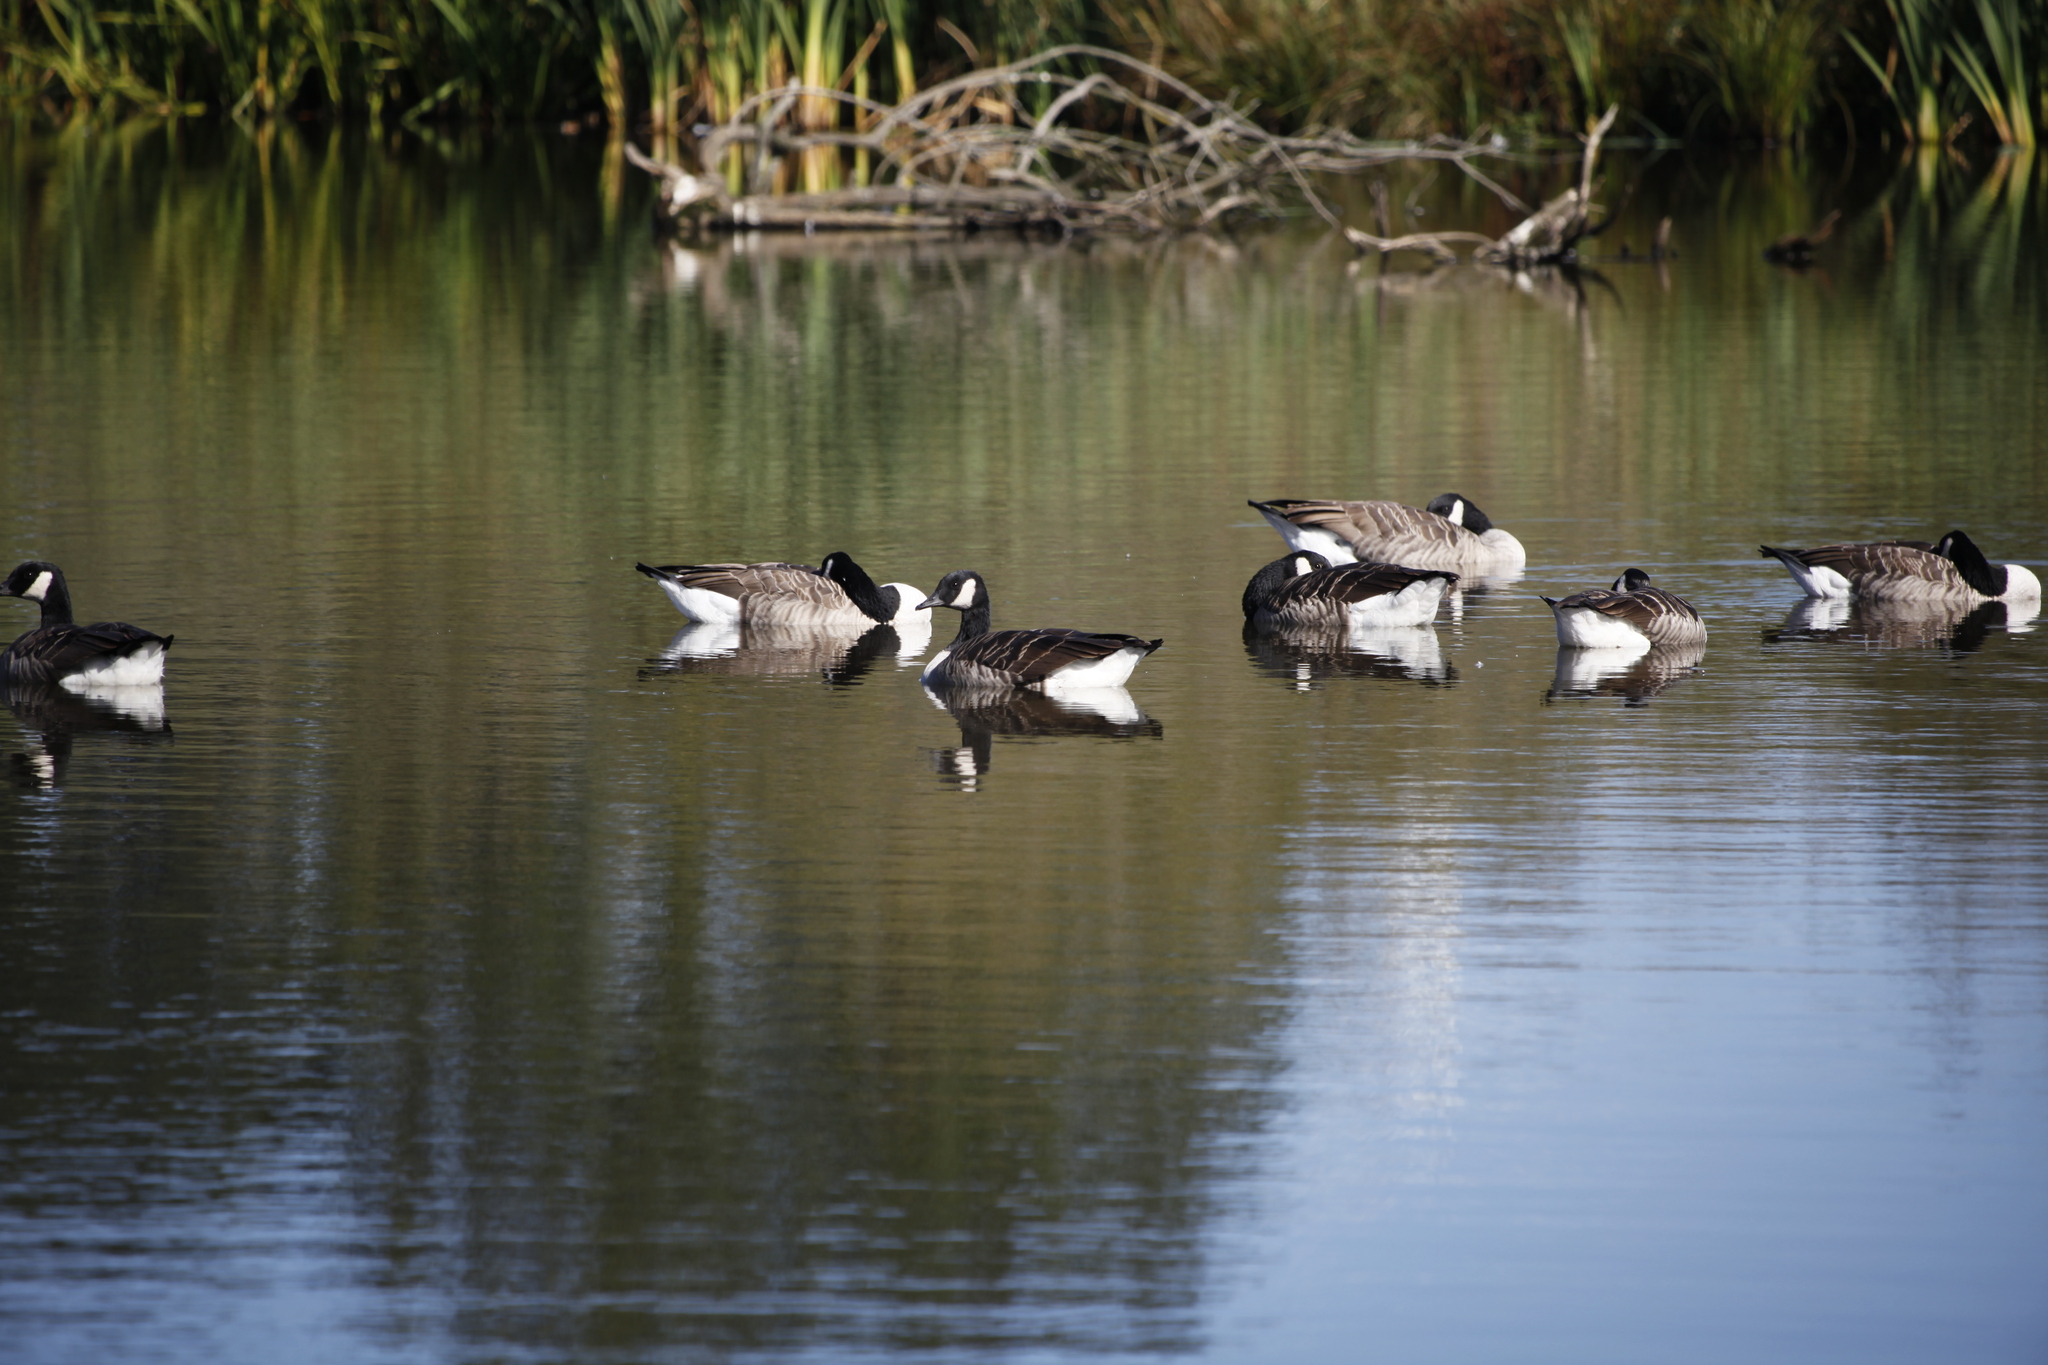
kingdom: Animalia
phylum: Chordata
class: Aves
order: Anseriformes
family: Anatidae
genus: Branta
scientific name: Branta canadensis
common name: Canada goose
